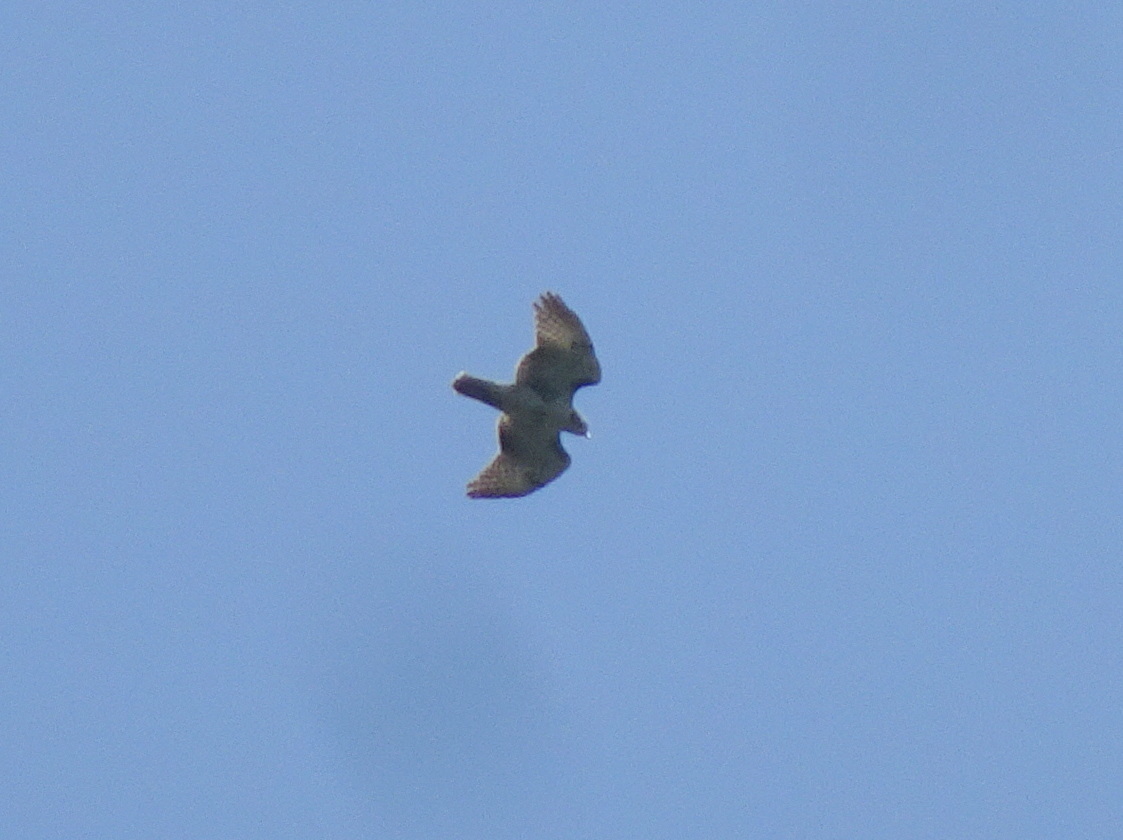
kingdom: Animalia
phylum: Chordata
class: Aves
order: Accipitriformes
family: Accipitridae
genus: Buteo
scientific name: Buteo jamaicensis
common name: Red-tailed hawk
